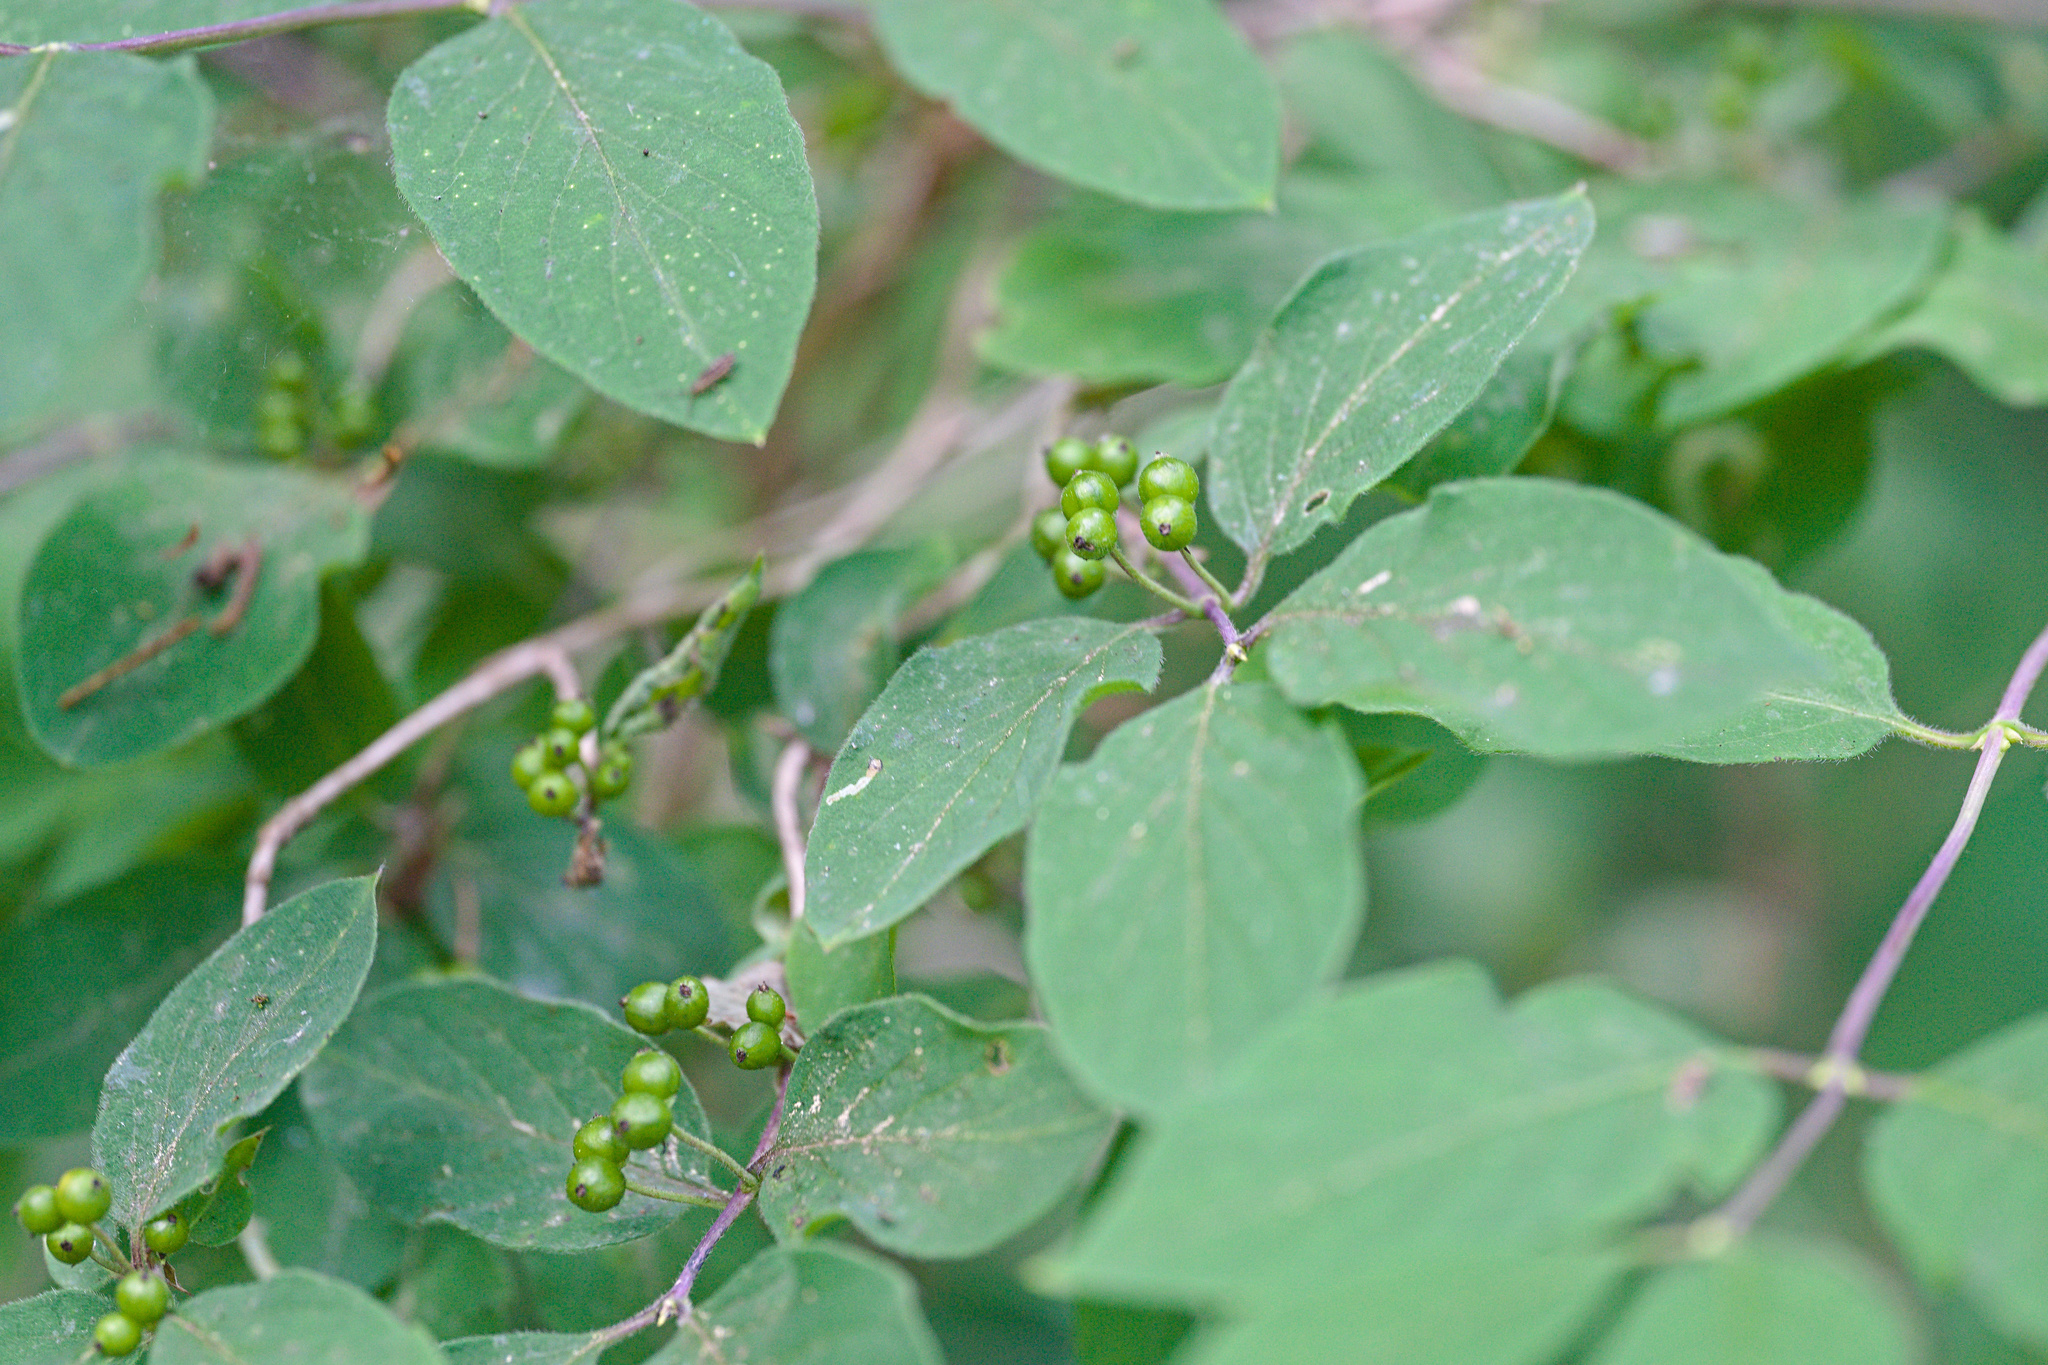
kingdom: Plantae
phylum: Tracheophyta
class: Magnoliopsida
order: Dipsacales
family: Caprifoliaceae
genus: Lonicera
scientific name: Lonicera xylosteum
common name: Fly honeysuckle
